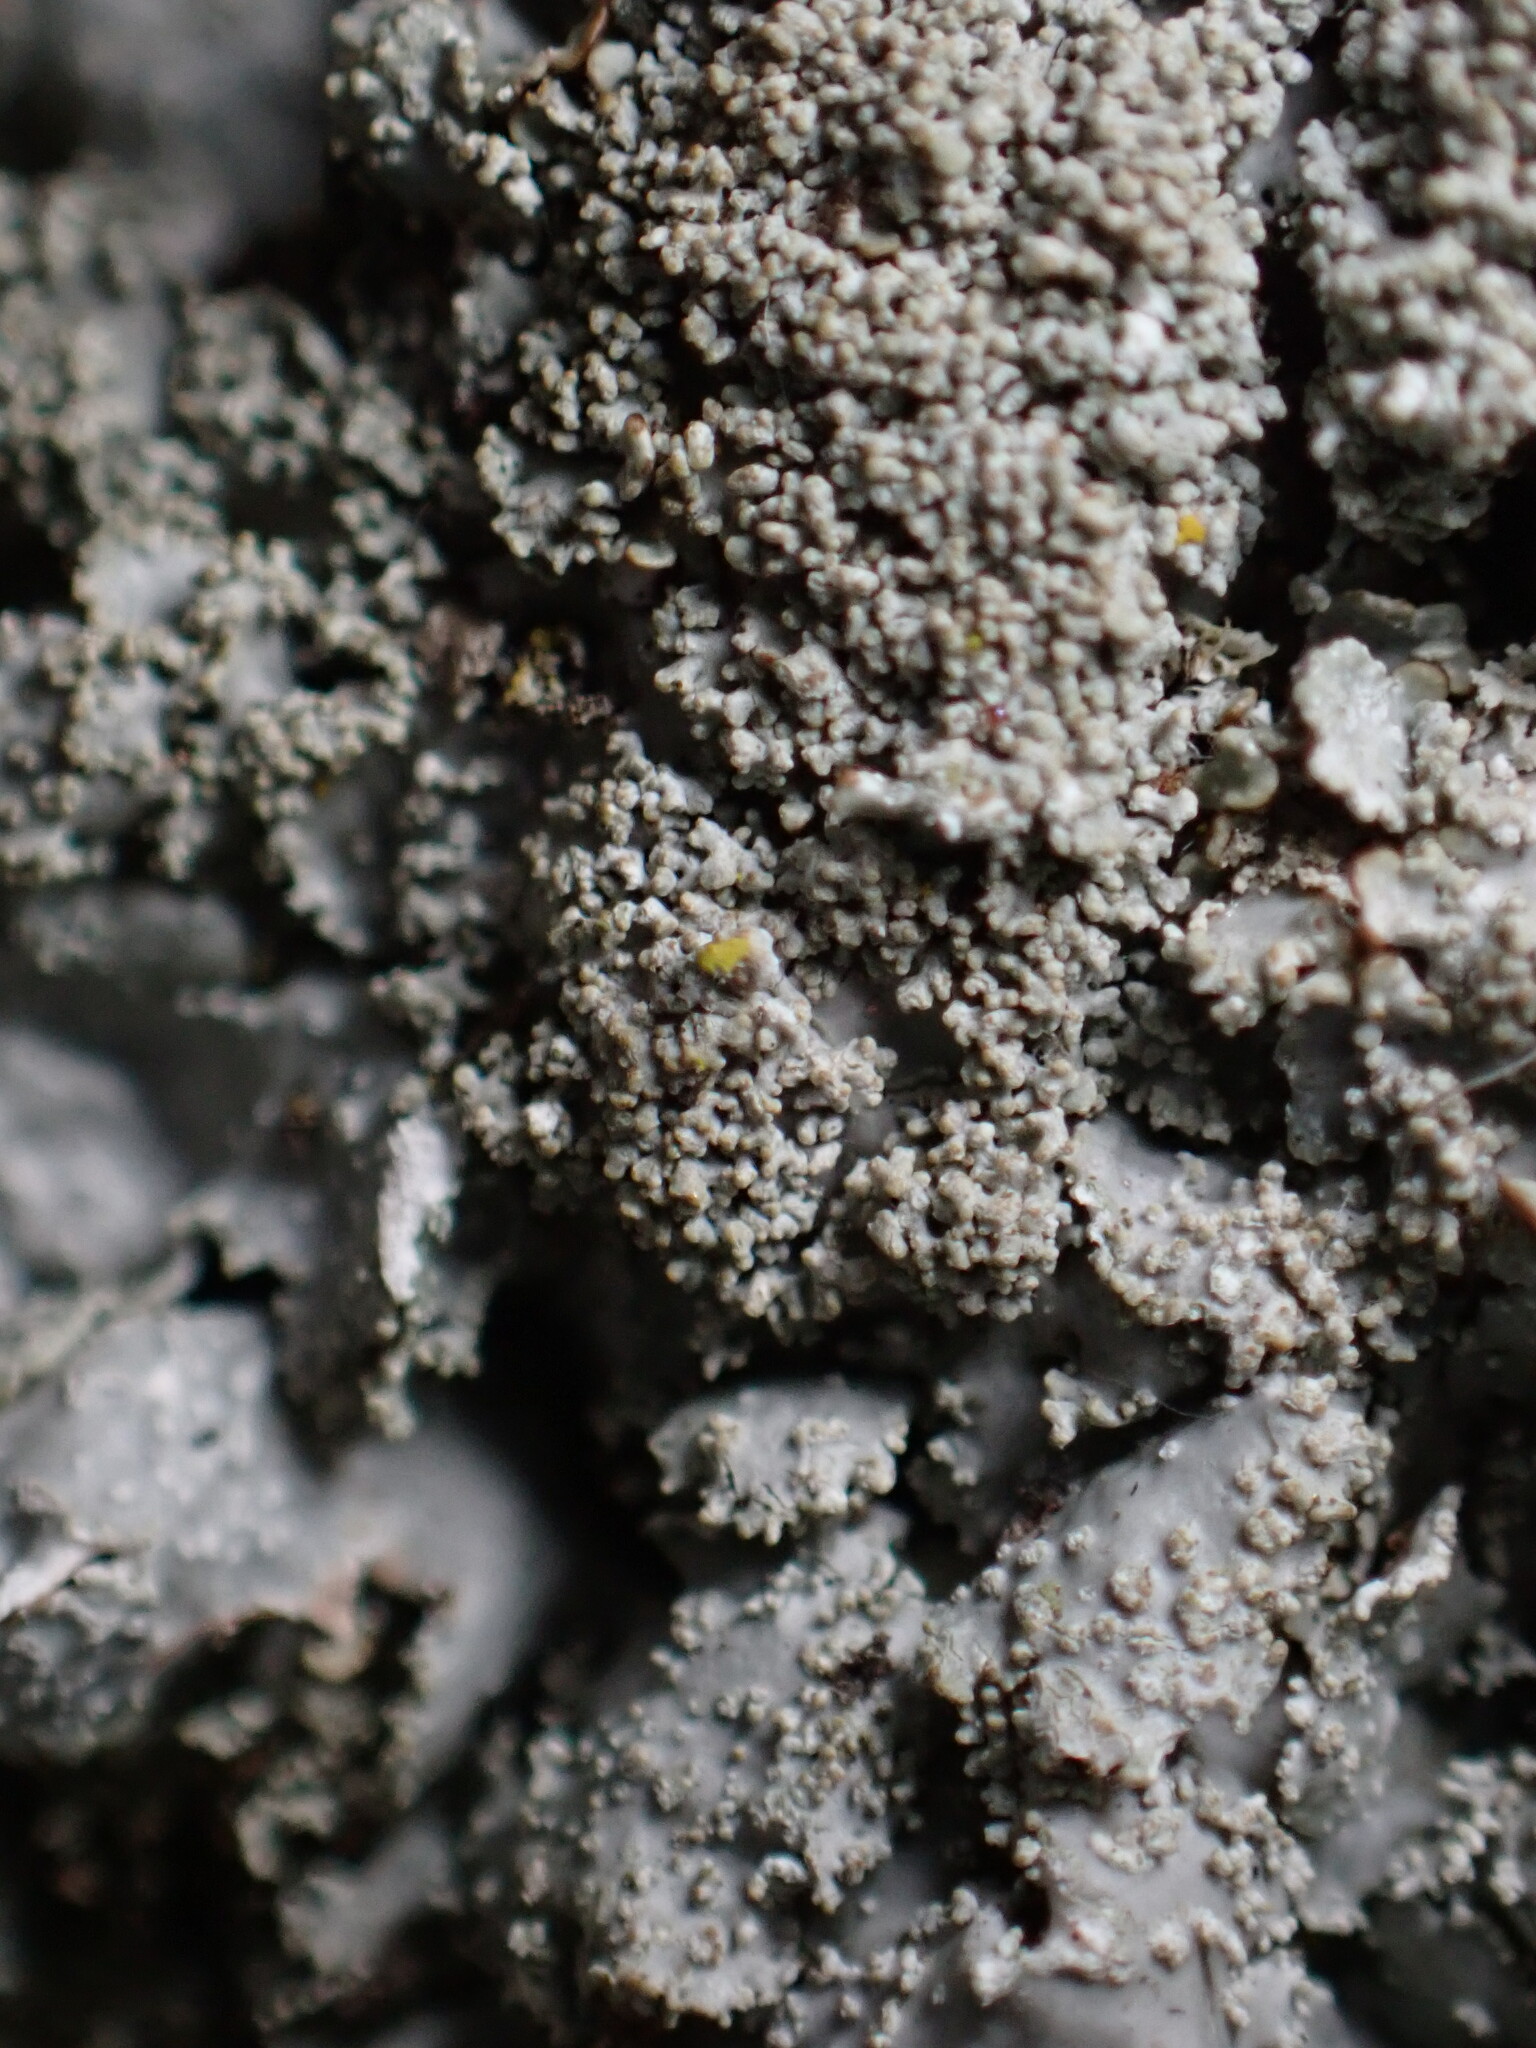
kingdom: Fungi
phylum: Ascomycota
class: Lecanoromycetes
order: Lecanorales
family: Parmeliaceae
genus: Punctelia
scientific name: Punctelia missouriensis
